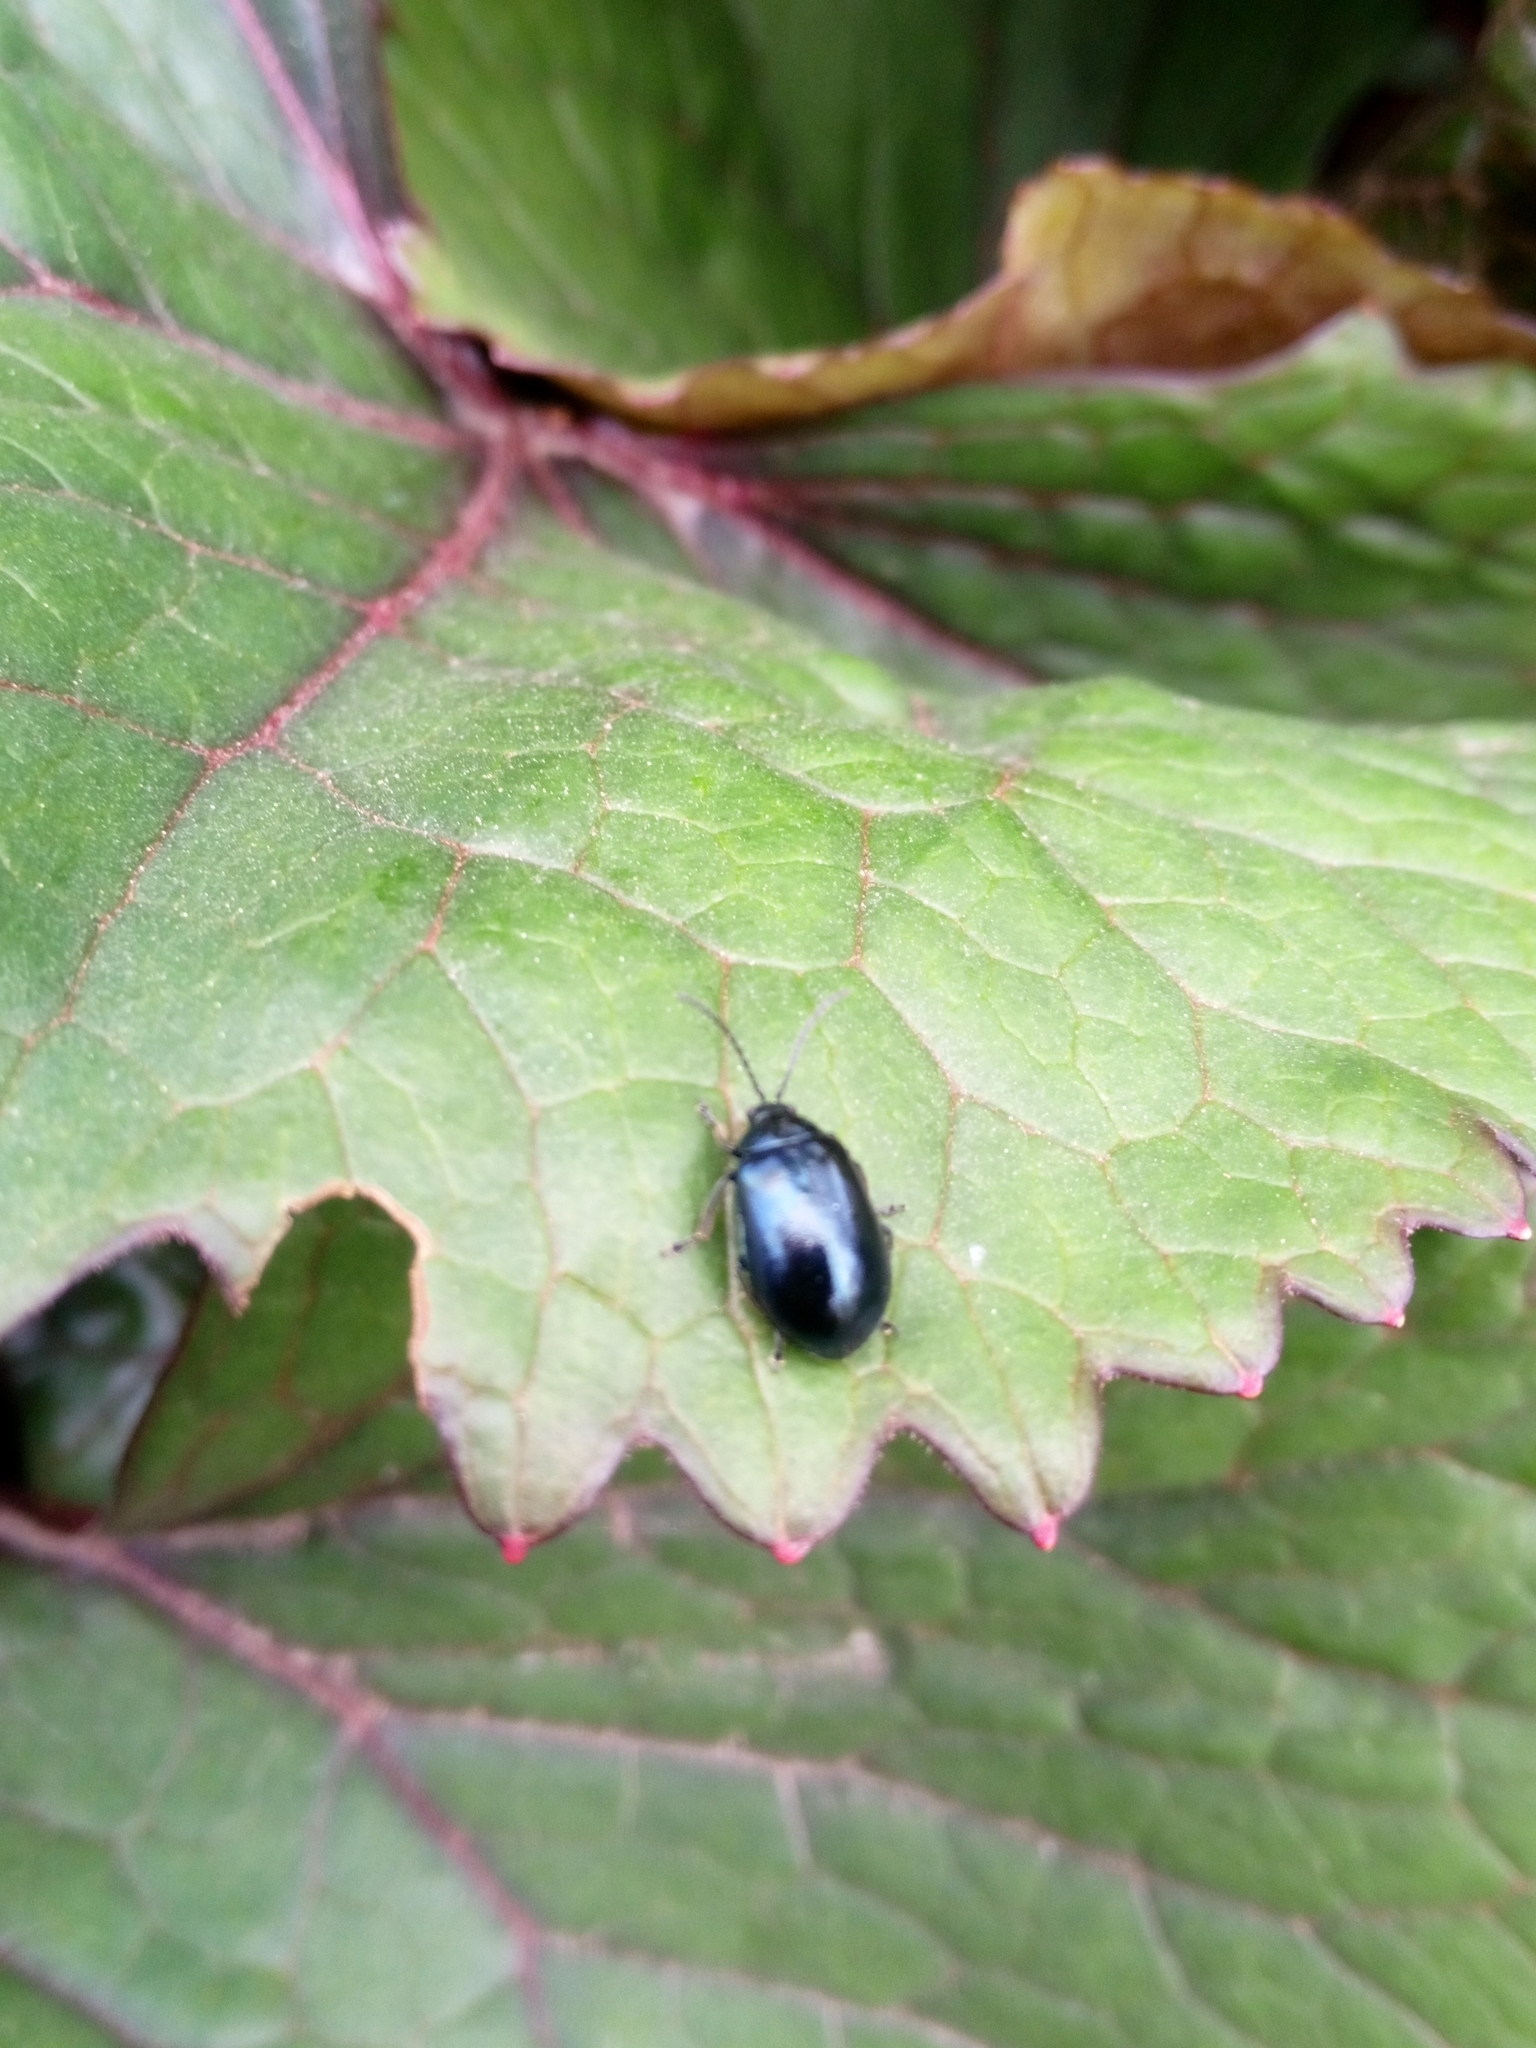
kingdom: Animalia
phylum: Arthropoda
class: Insecta
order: Coleoptera
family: Chrysomelidae
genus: Agelastica
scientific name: Agelastica alni
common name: Alder leaf beetle
